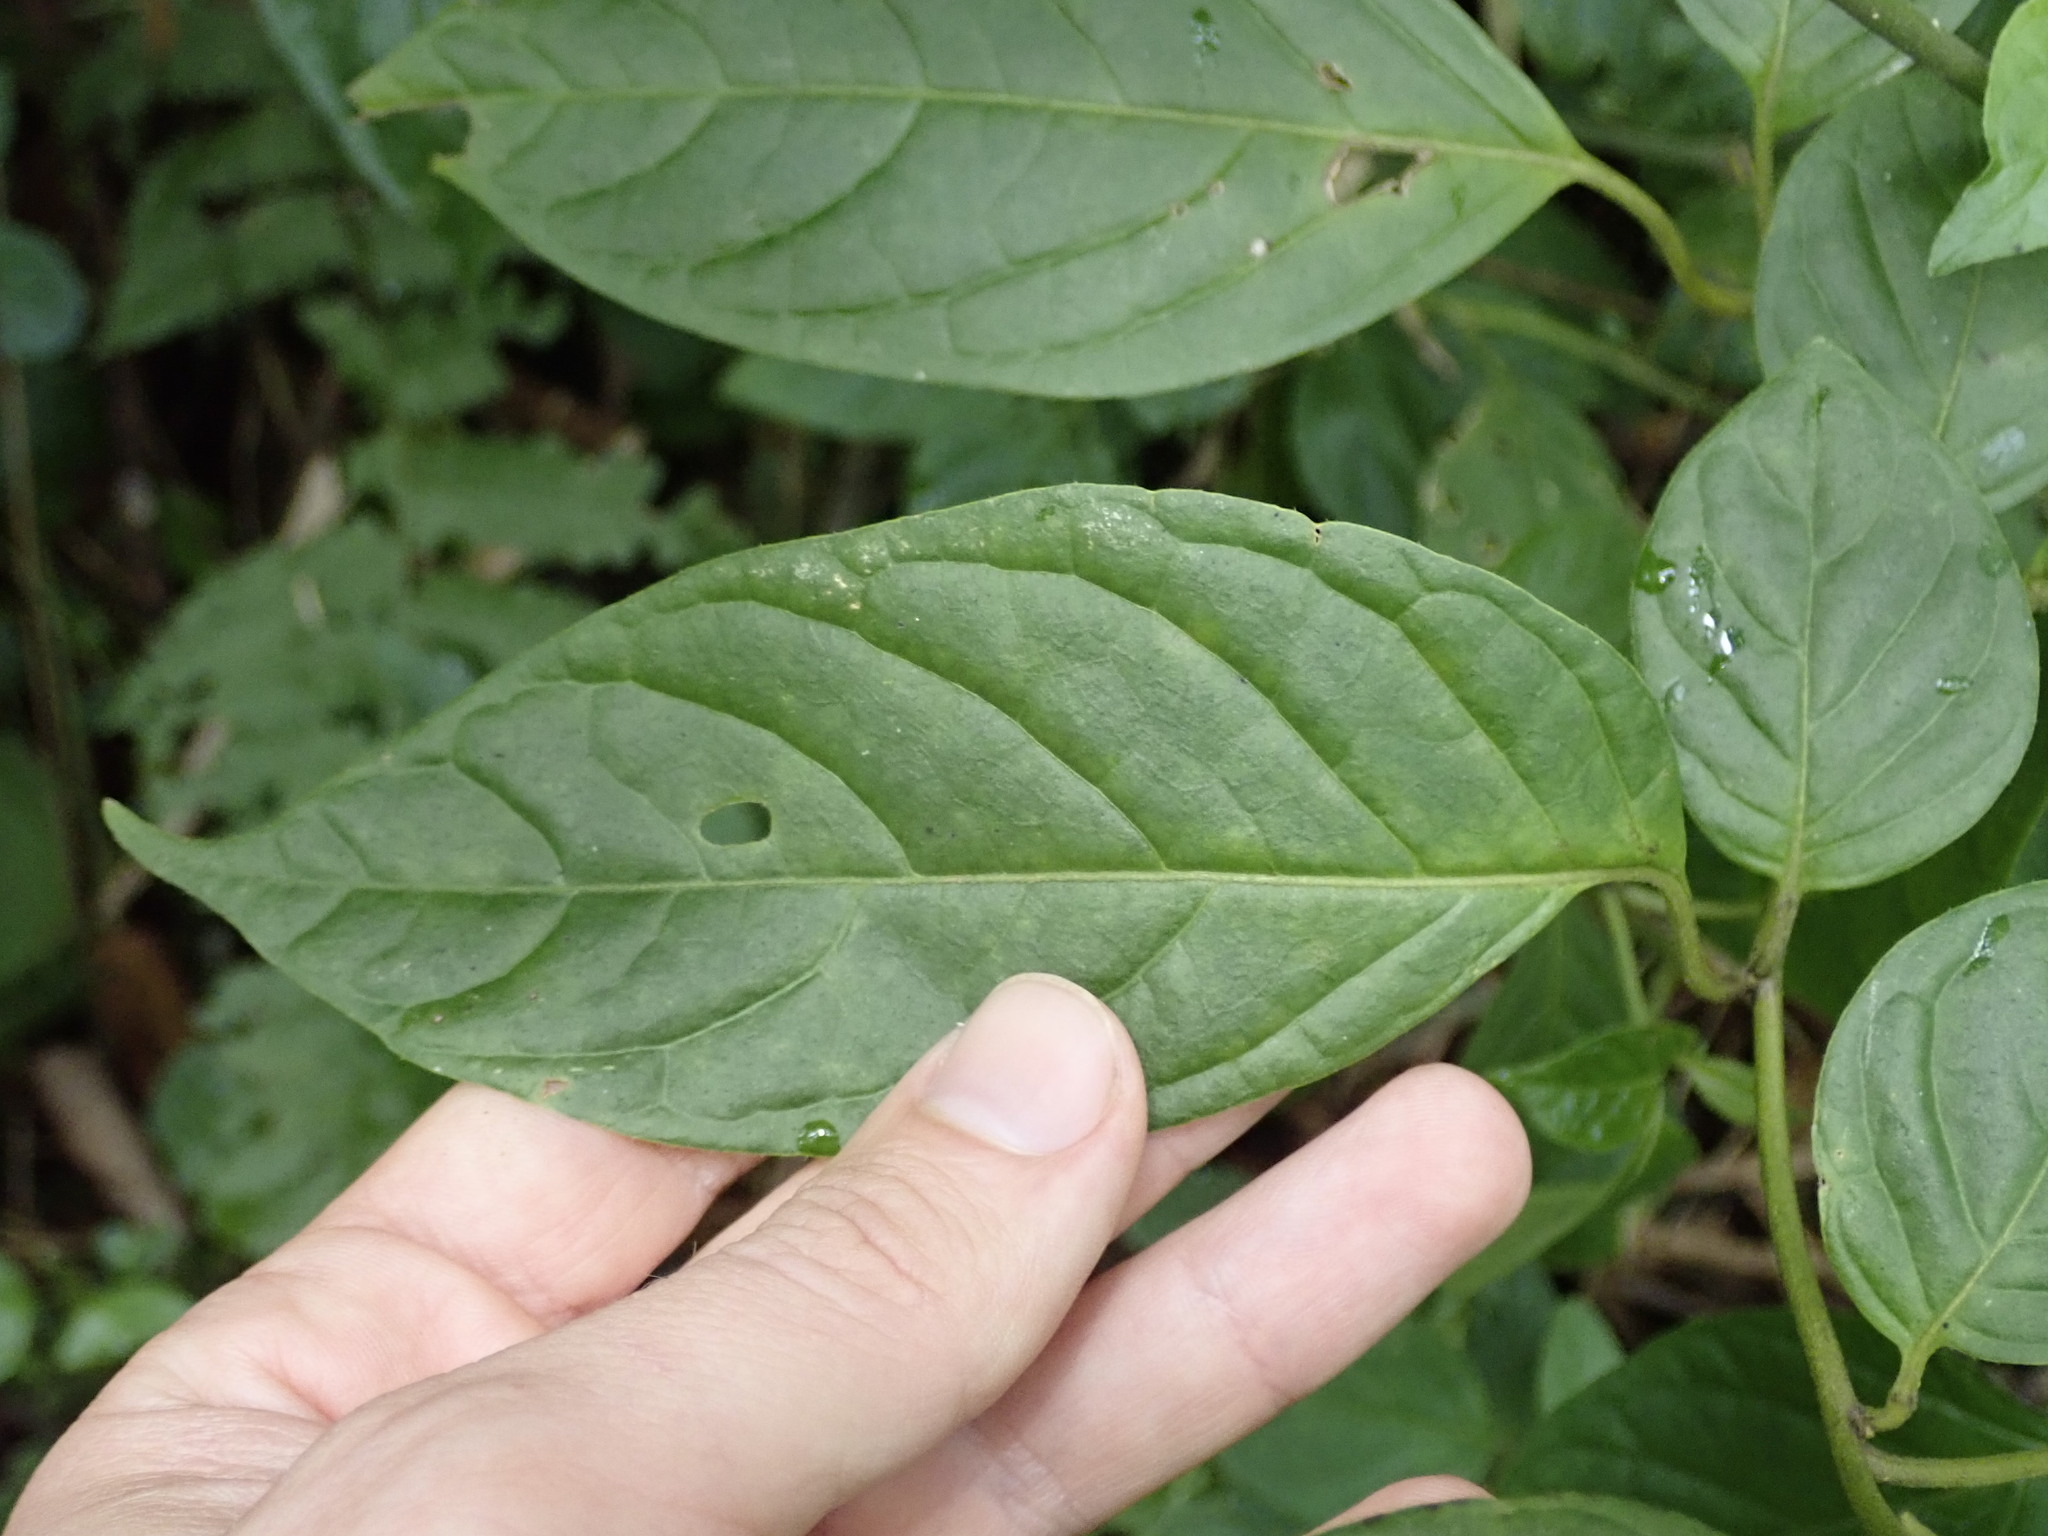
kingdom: Plantae
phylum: Tracheophyta
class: Magnoliopsida
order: Solanales
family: Solanaceae
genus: Browallia
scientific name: Browallia speciosa
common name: Bush-violet
